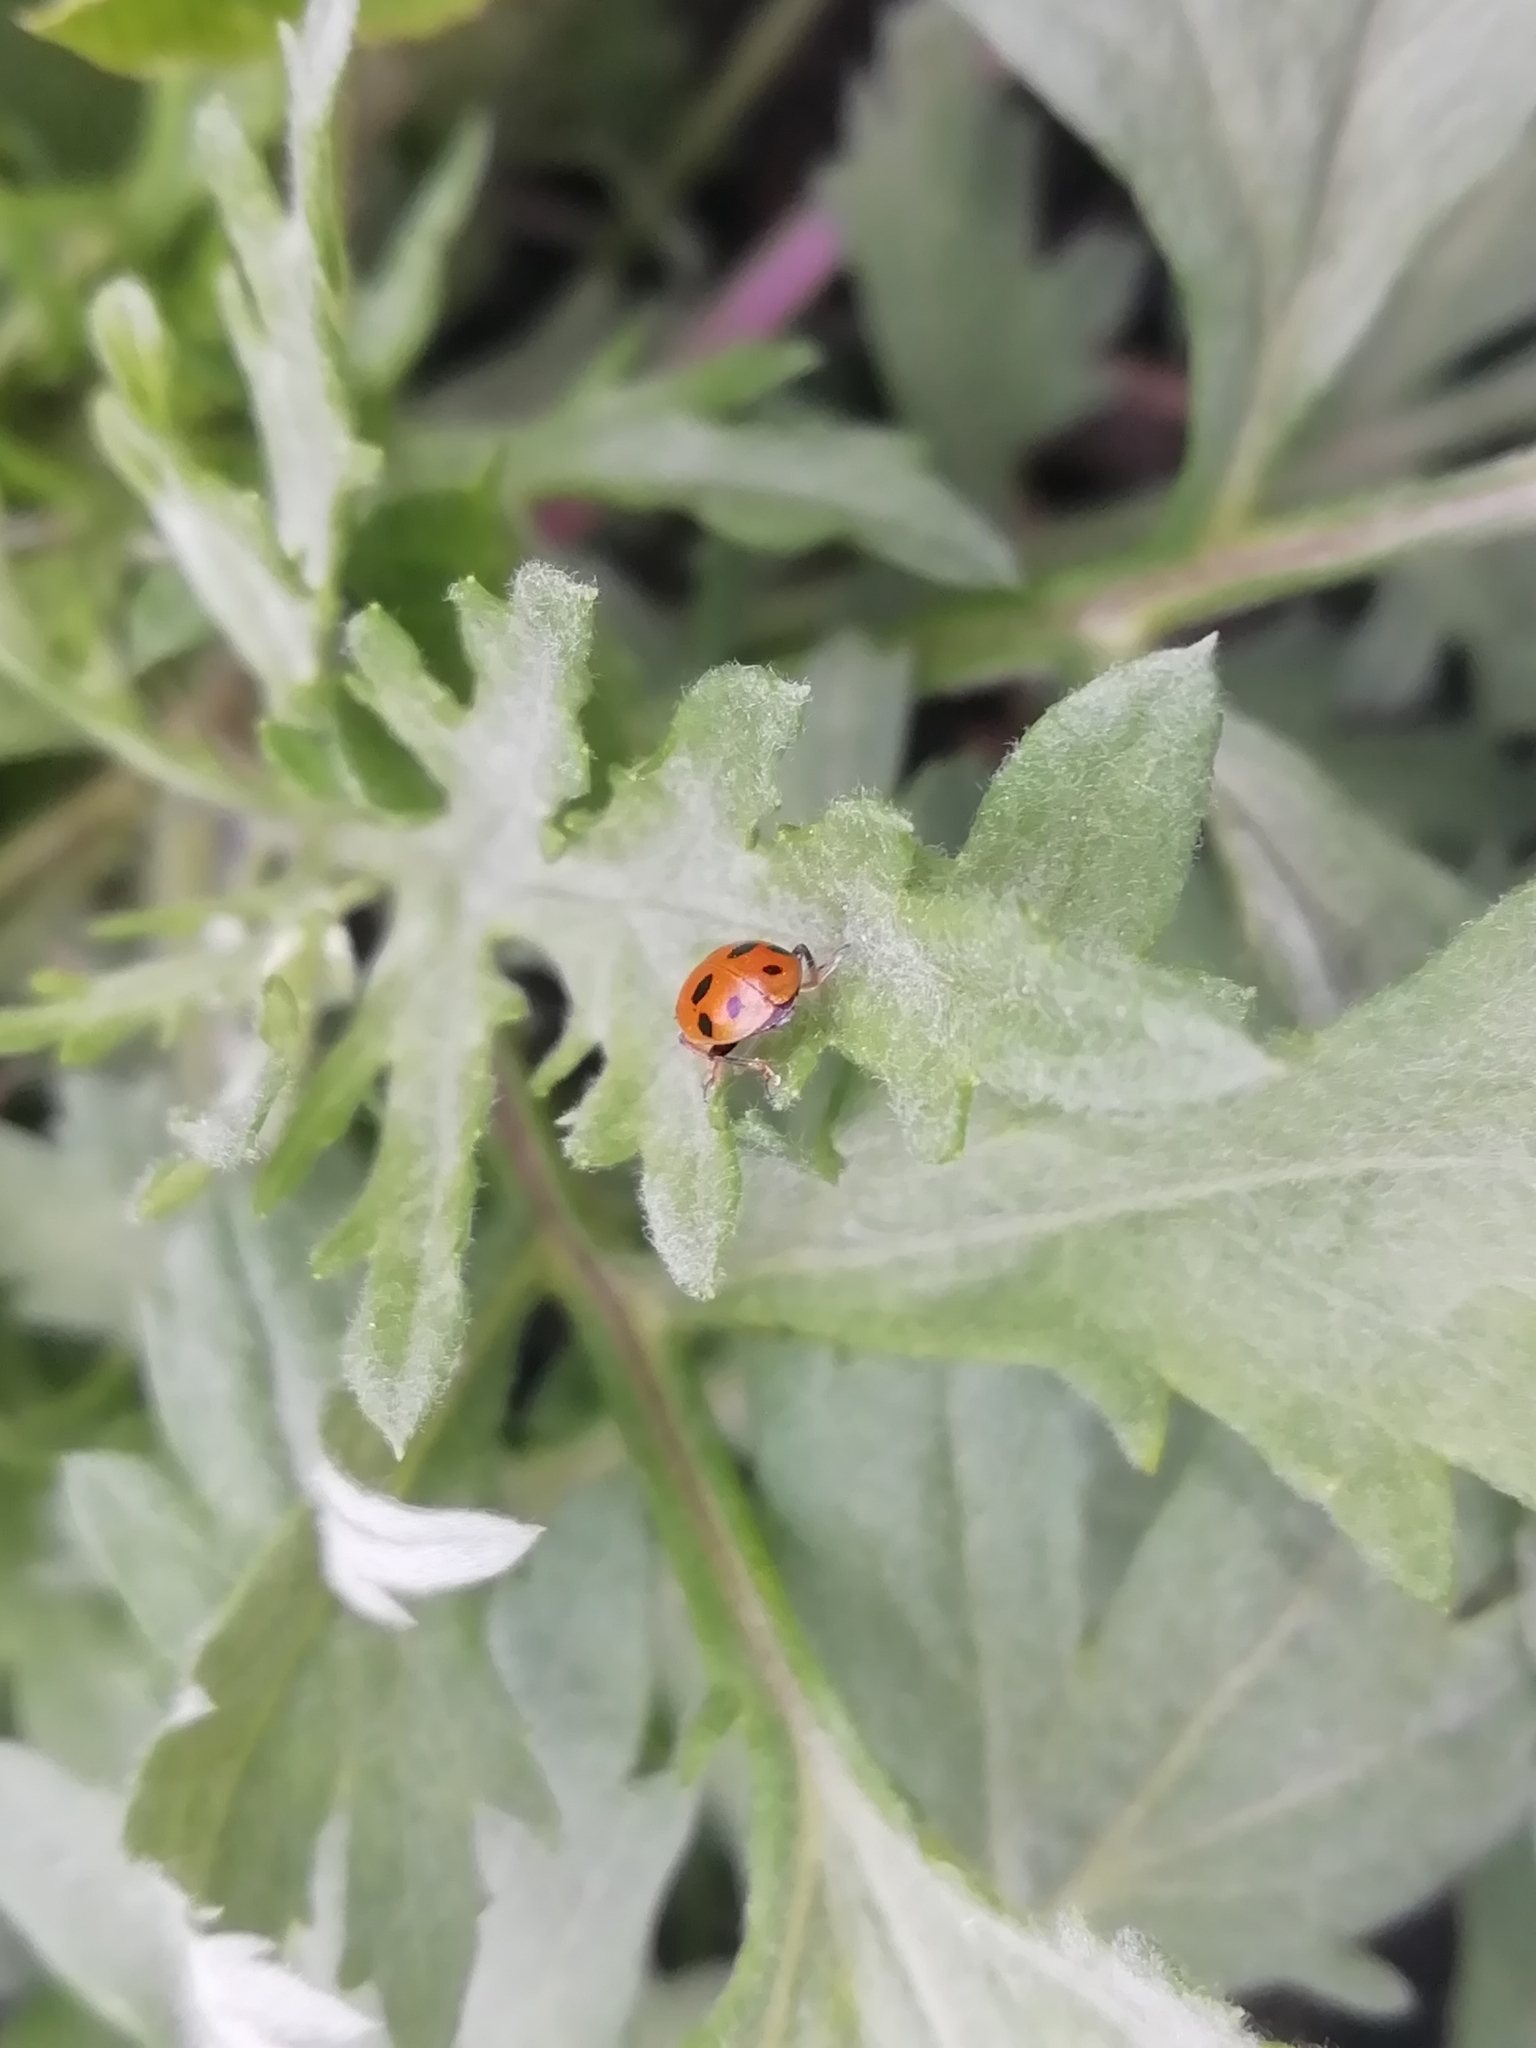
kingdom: Animalia
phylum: Arthropoda
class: Insecta
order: Coleoptera
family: Coccinellidae
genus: Hippodamia
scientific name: Hippodamia variegata
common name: Ladybird beetle
